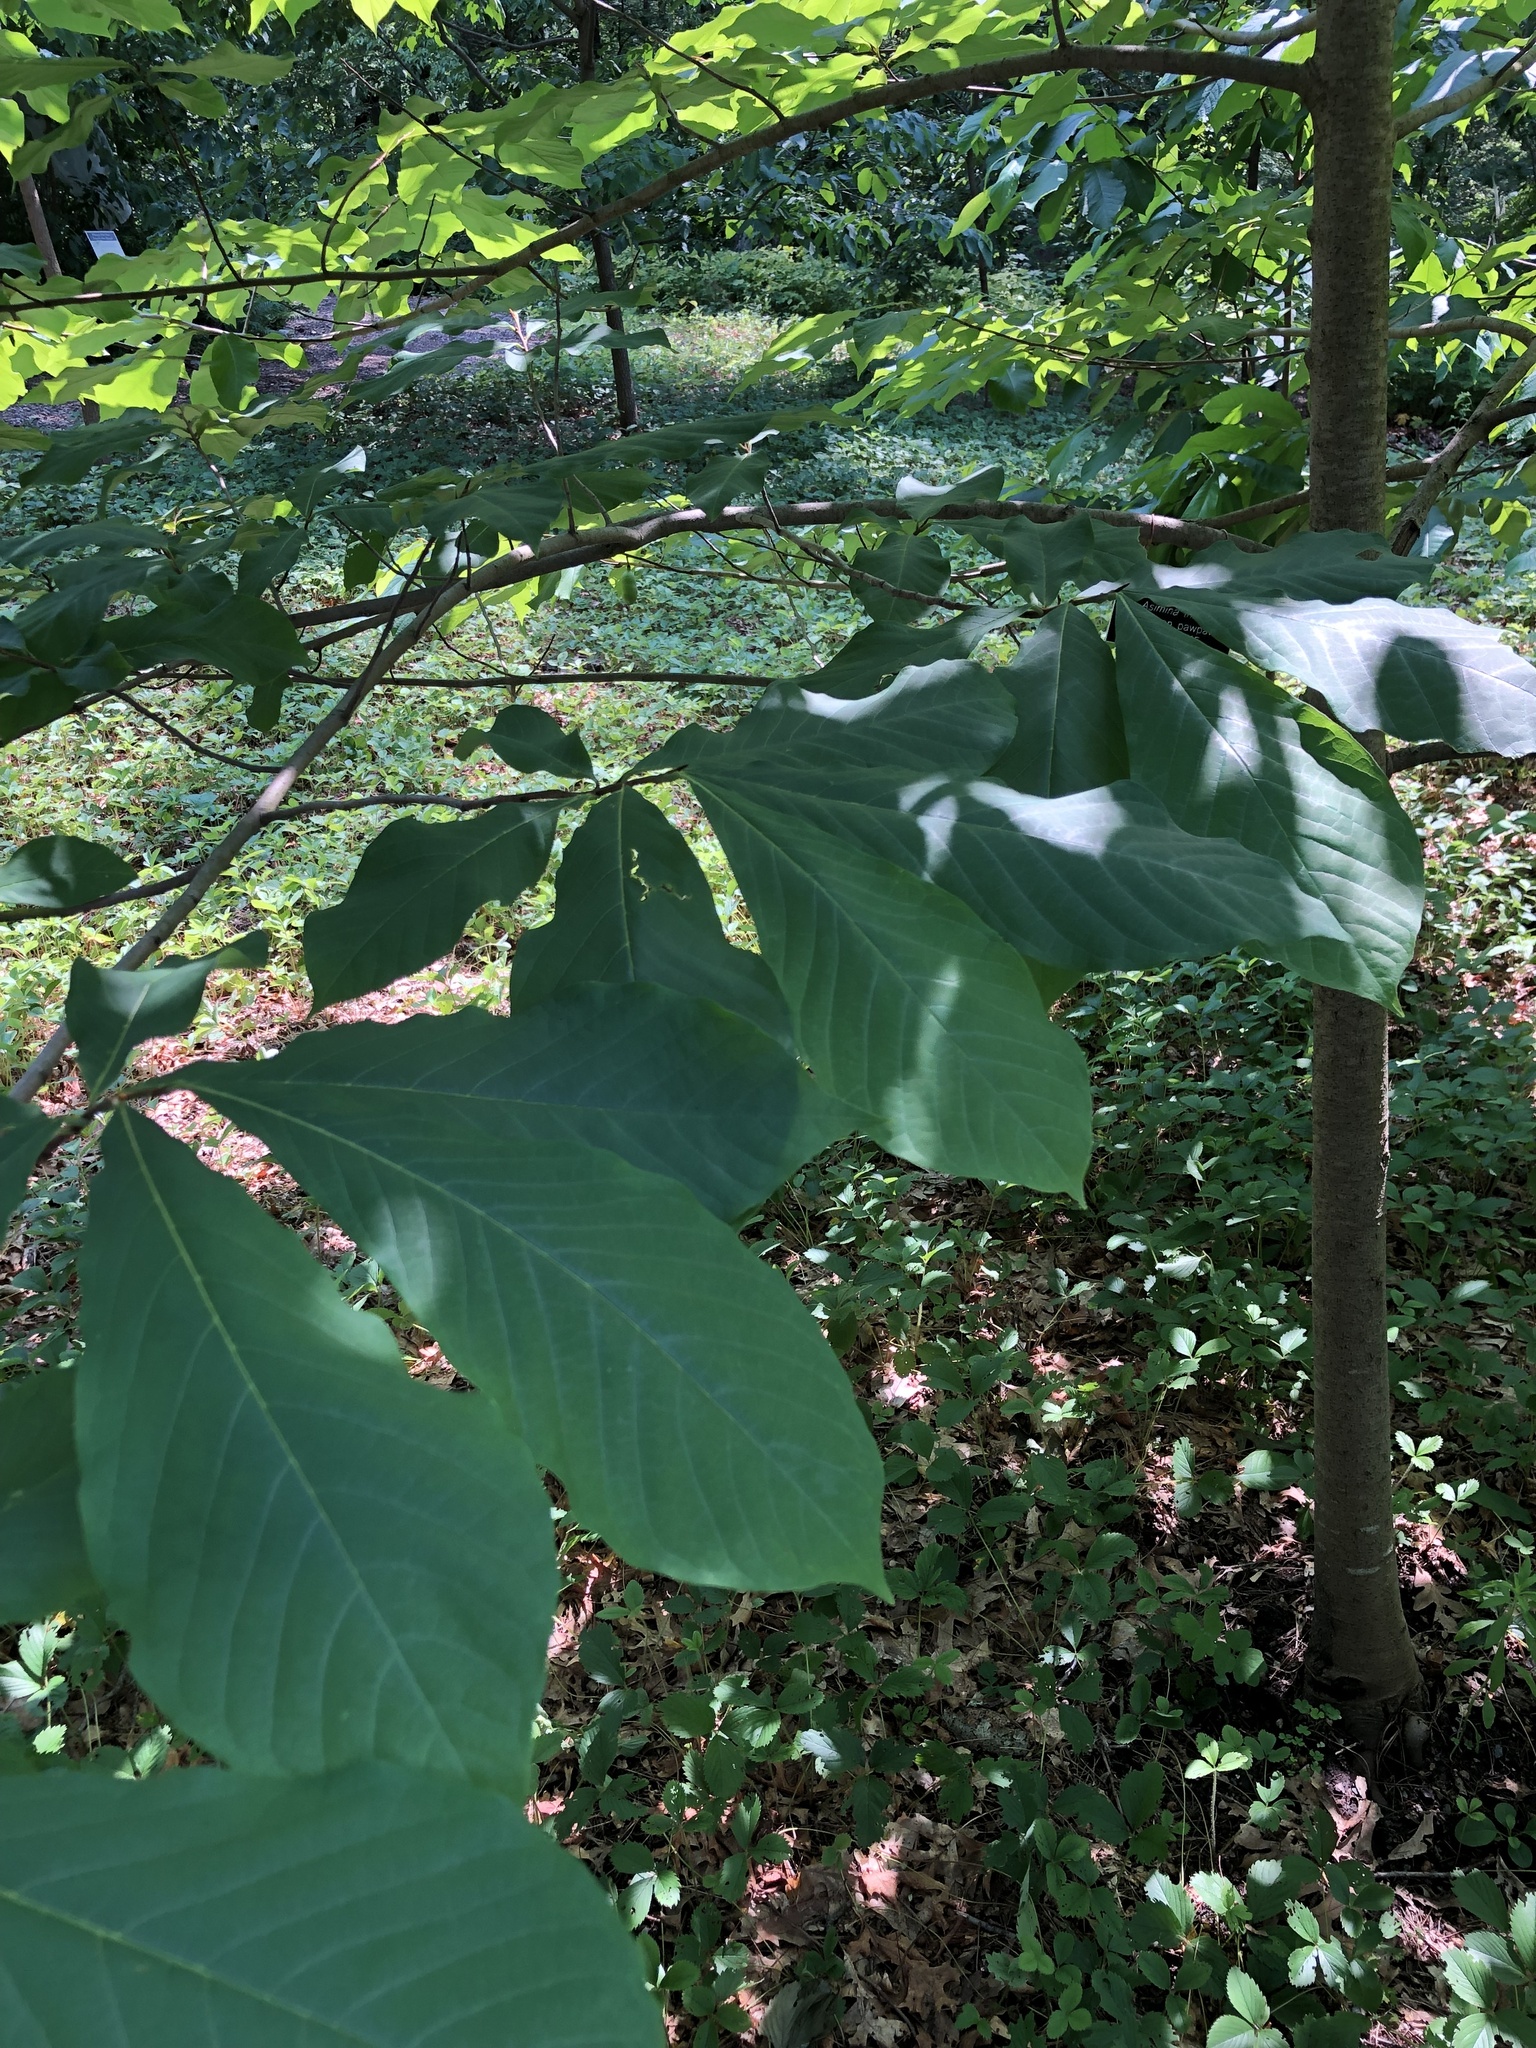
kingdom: Plantae
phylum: Tracheophyta
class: Magnoliopsida
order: Magnoliales
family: Annonaceae
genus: Asimina
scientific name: Asimina triloba
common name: Dog-banana
